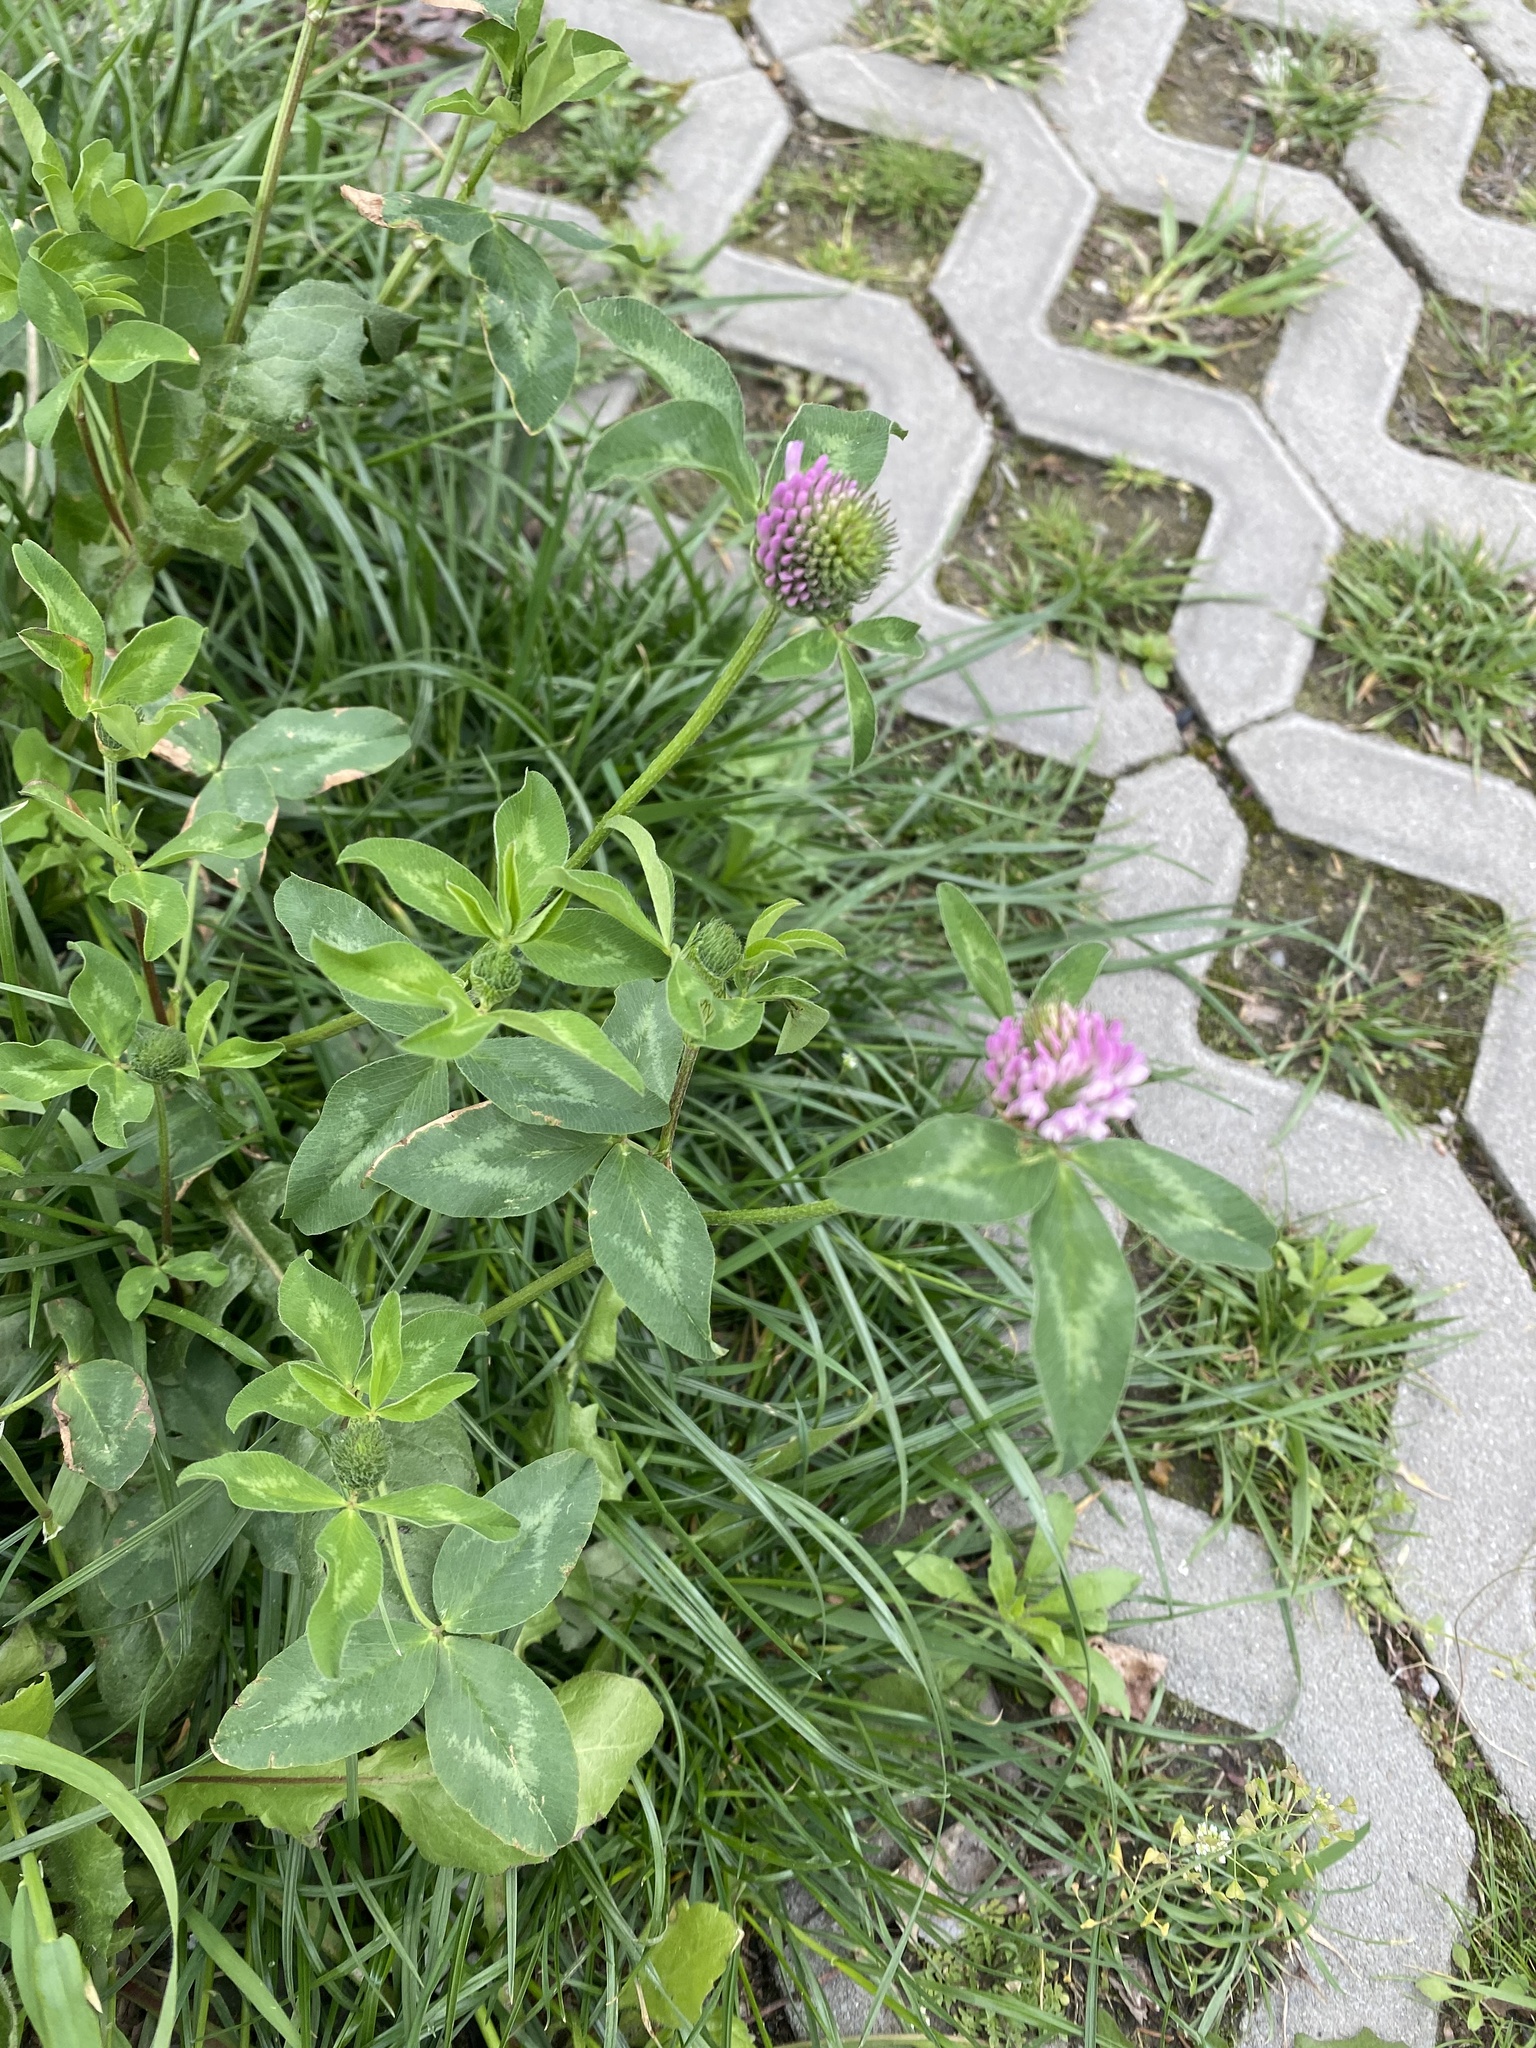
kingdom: Plantae
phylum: Tracheophyta
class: Magnoliopsida
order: Fabales
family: Fabaceae
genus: Trifolium
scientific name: Trifolium pratense
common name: Red clover
